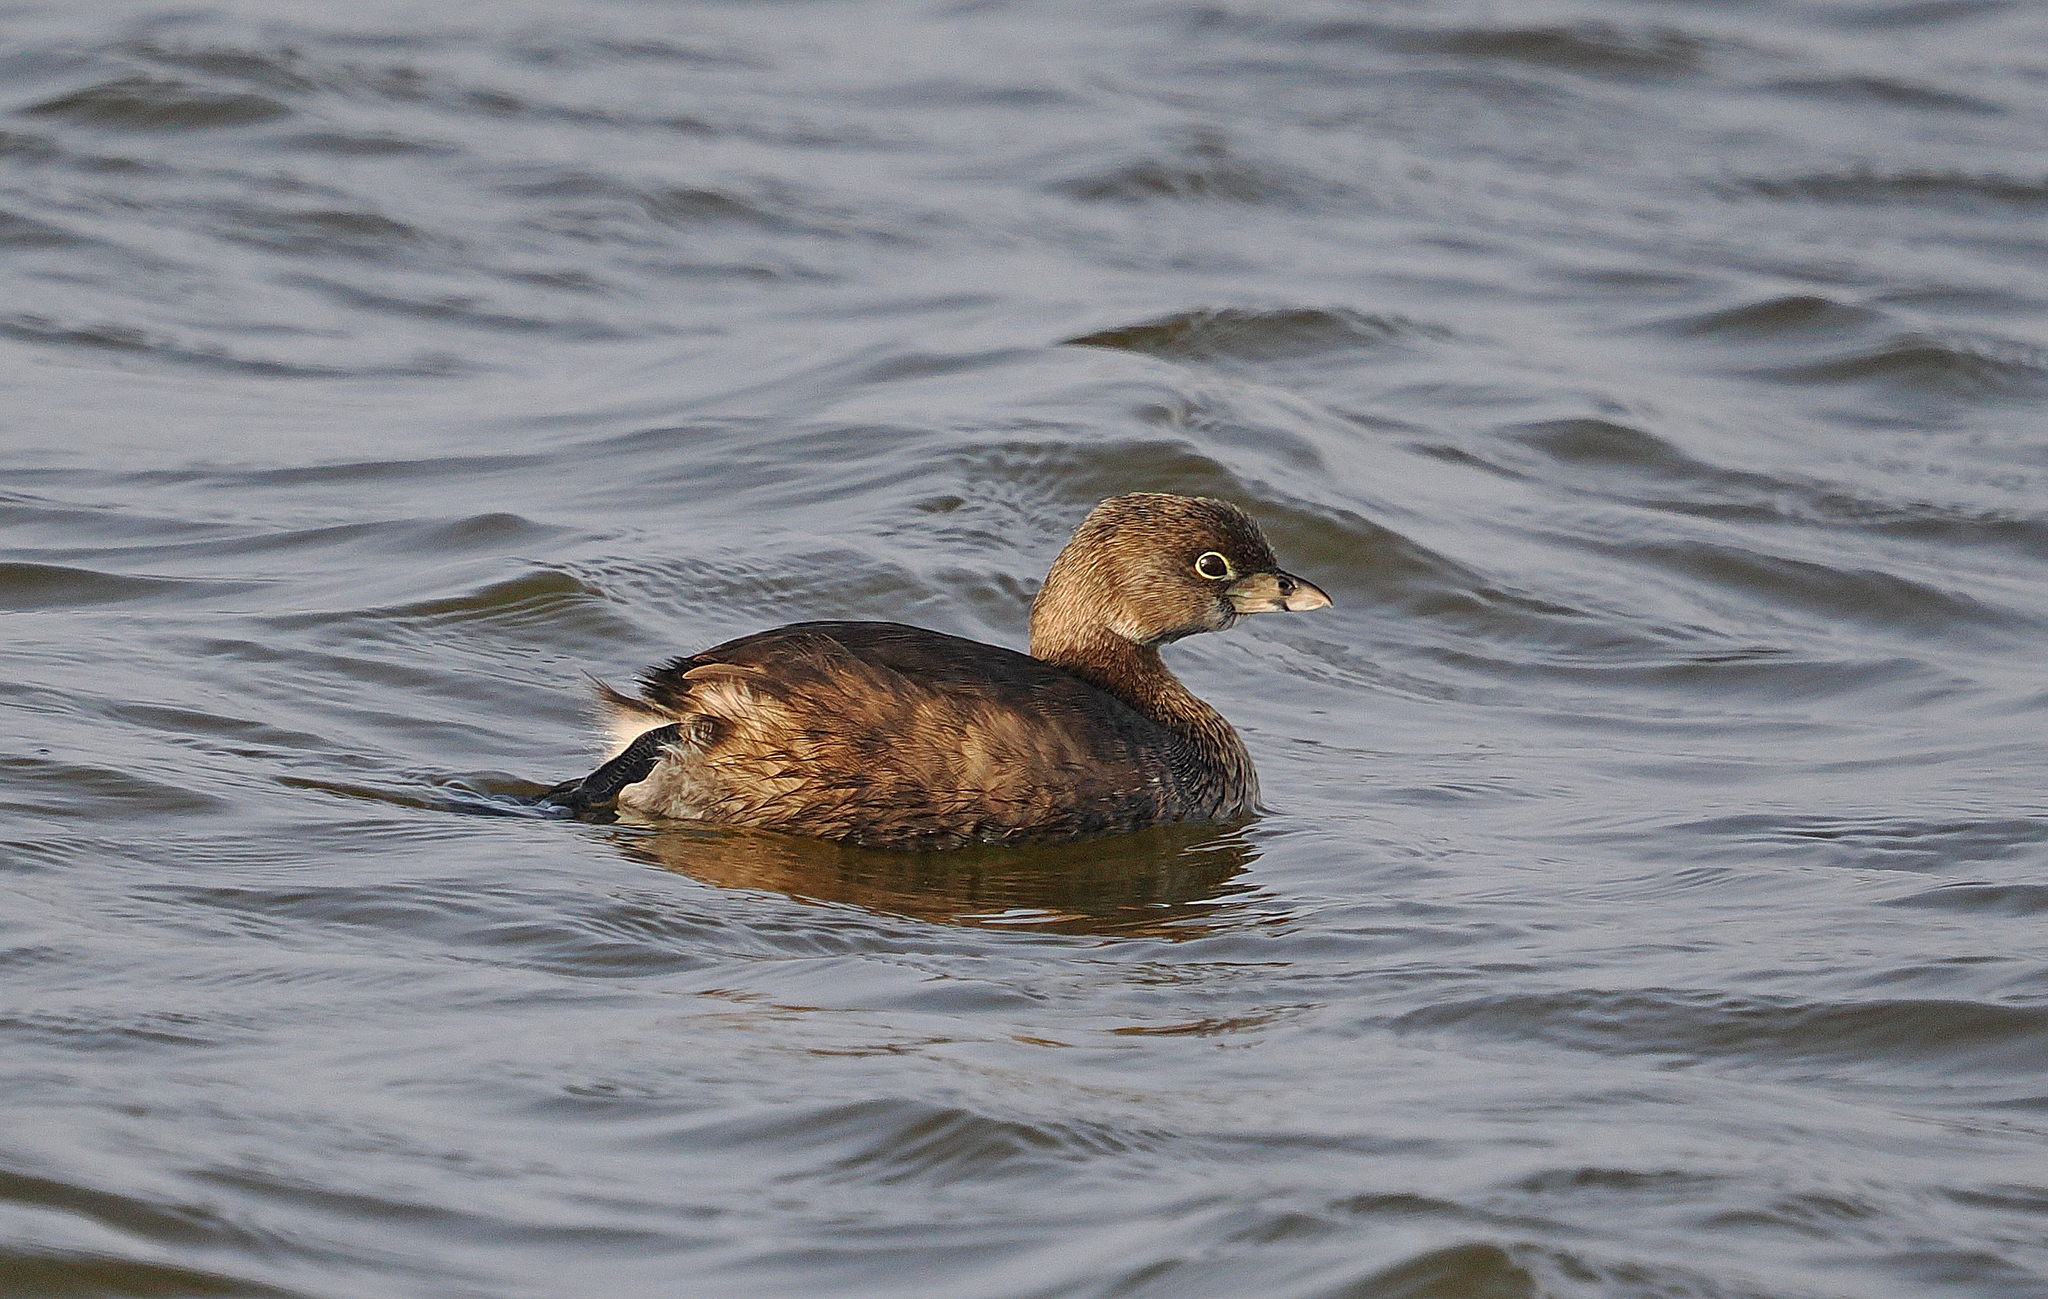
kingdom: Animalia
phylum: Chordata
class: Aves
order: Podicipediformes
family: Podicipedidae
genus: Podilymbus
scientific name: Podilymbus podiceps
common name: Pied-billed grebe
